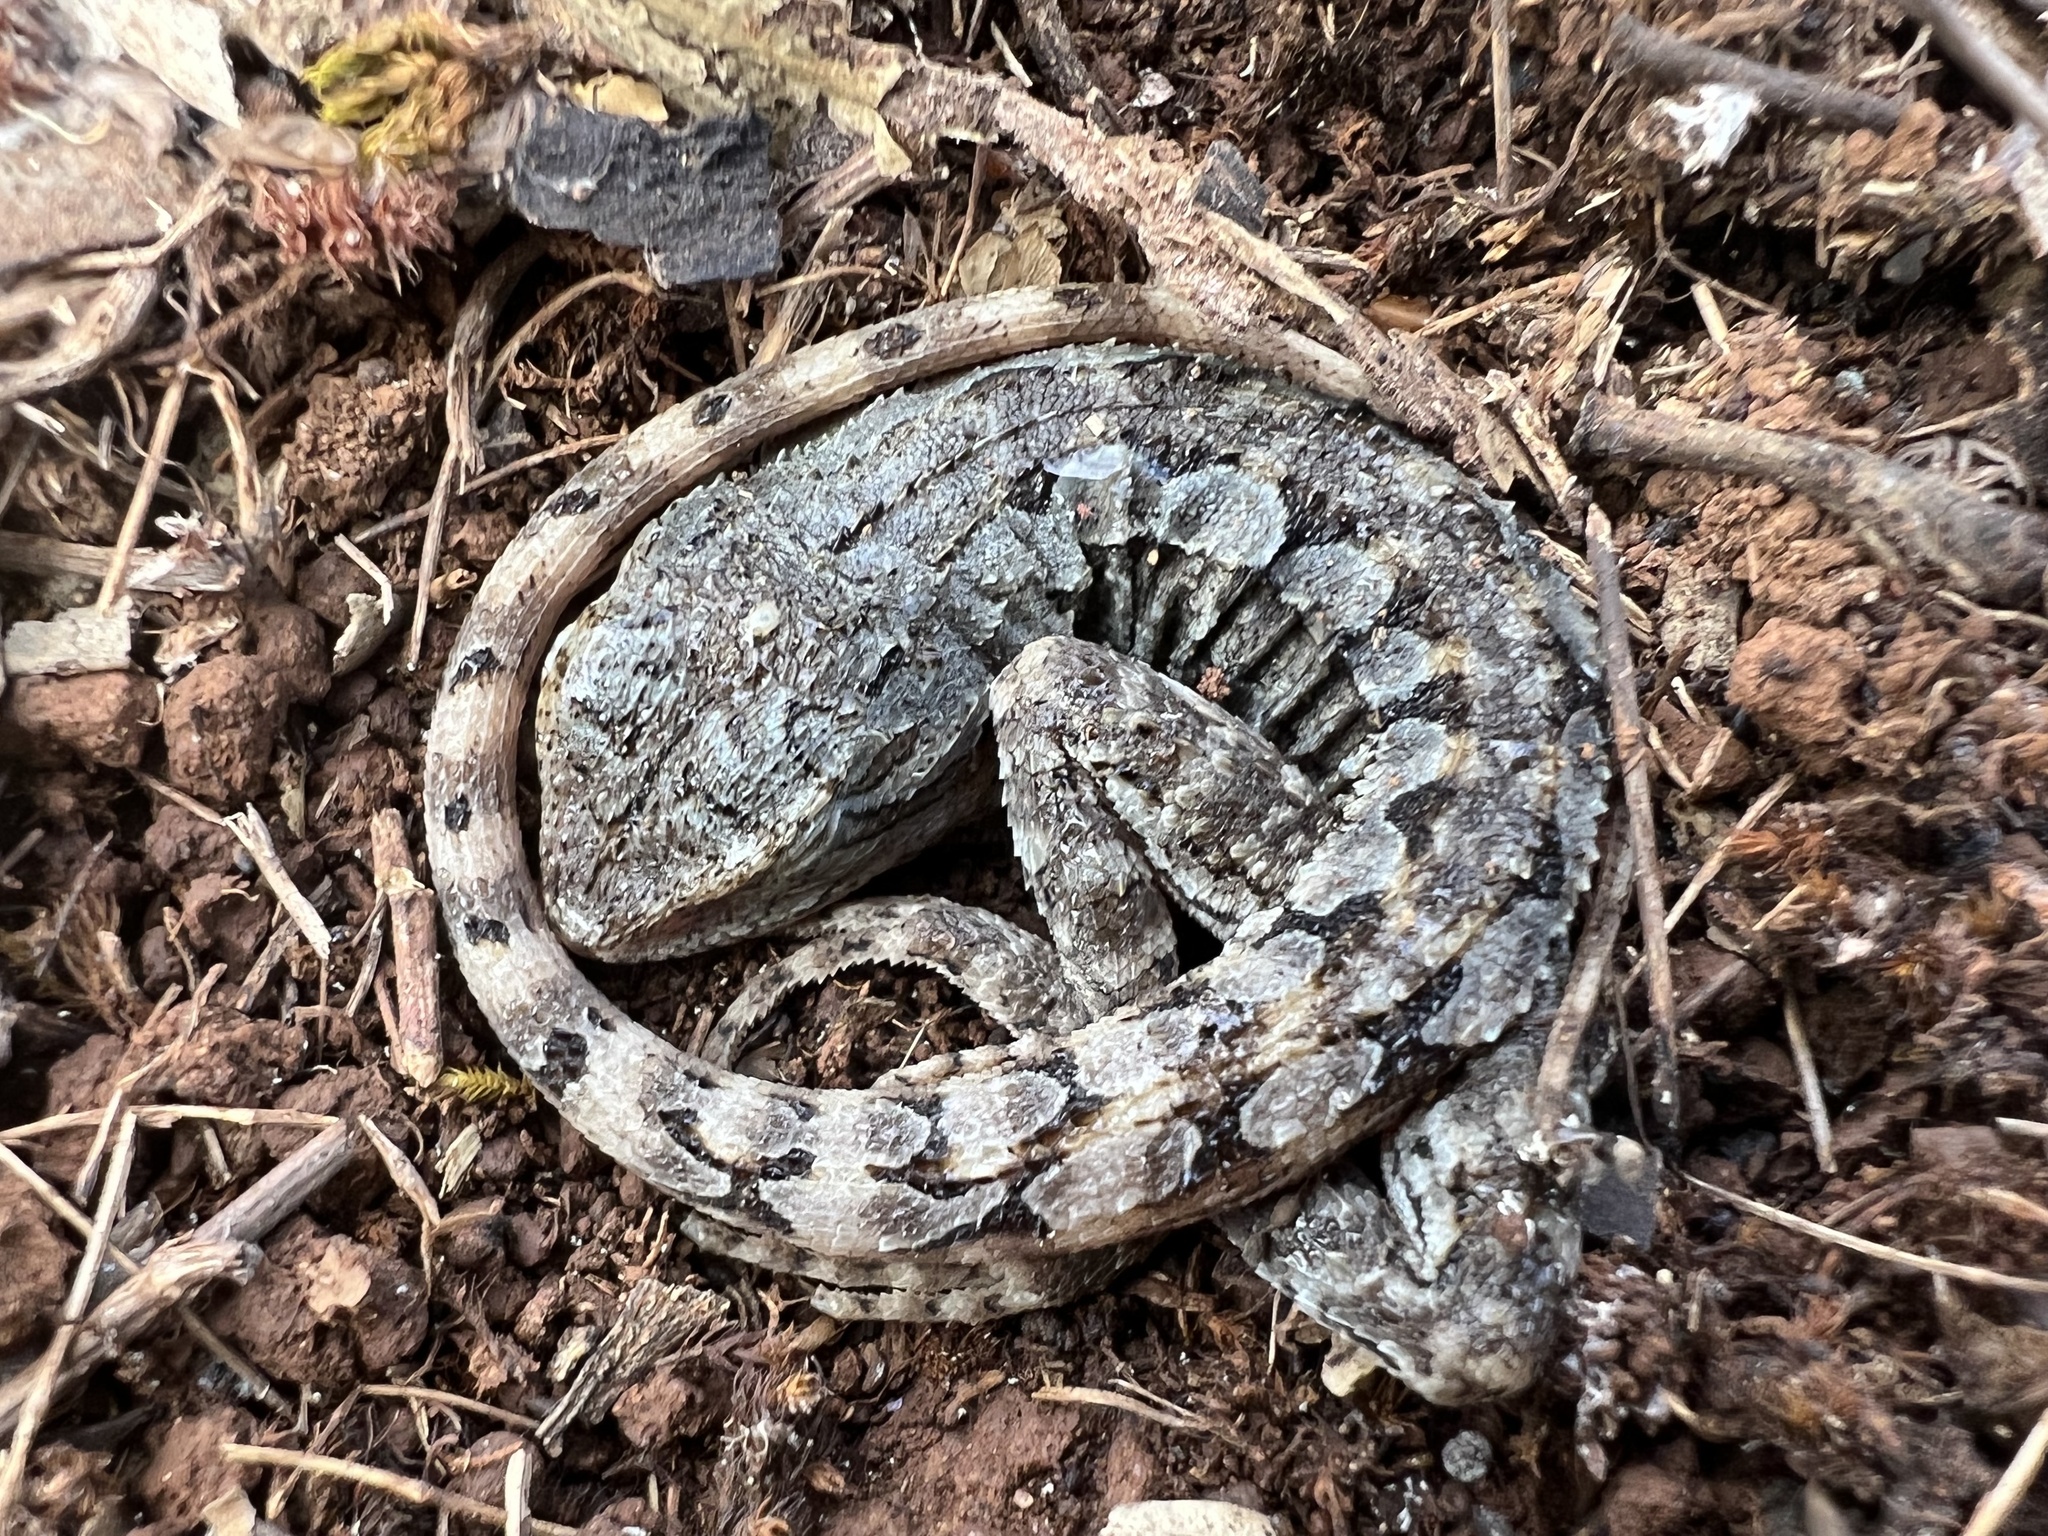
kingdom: Animalia
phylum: Chordata
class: Squamata
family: Agamidae
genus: Amphibolurus
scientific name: Amphibolurus muricatus
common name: Jacky lizard
